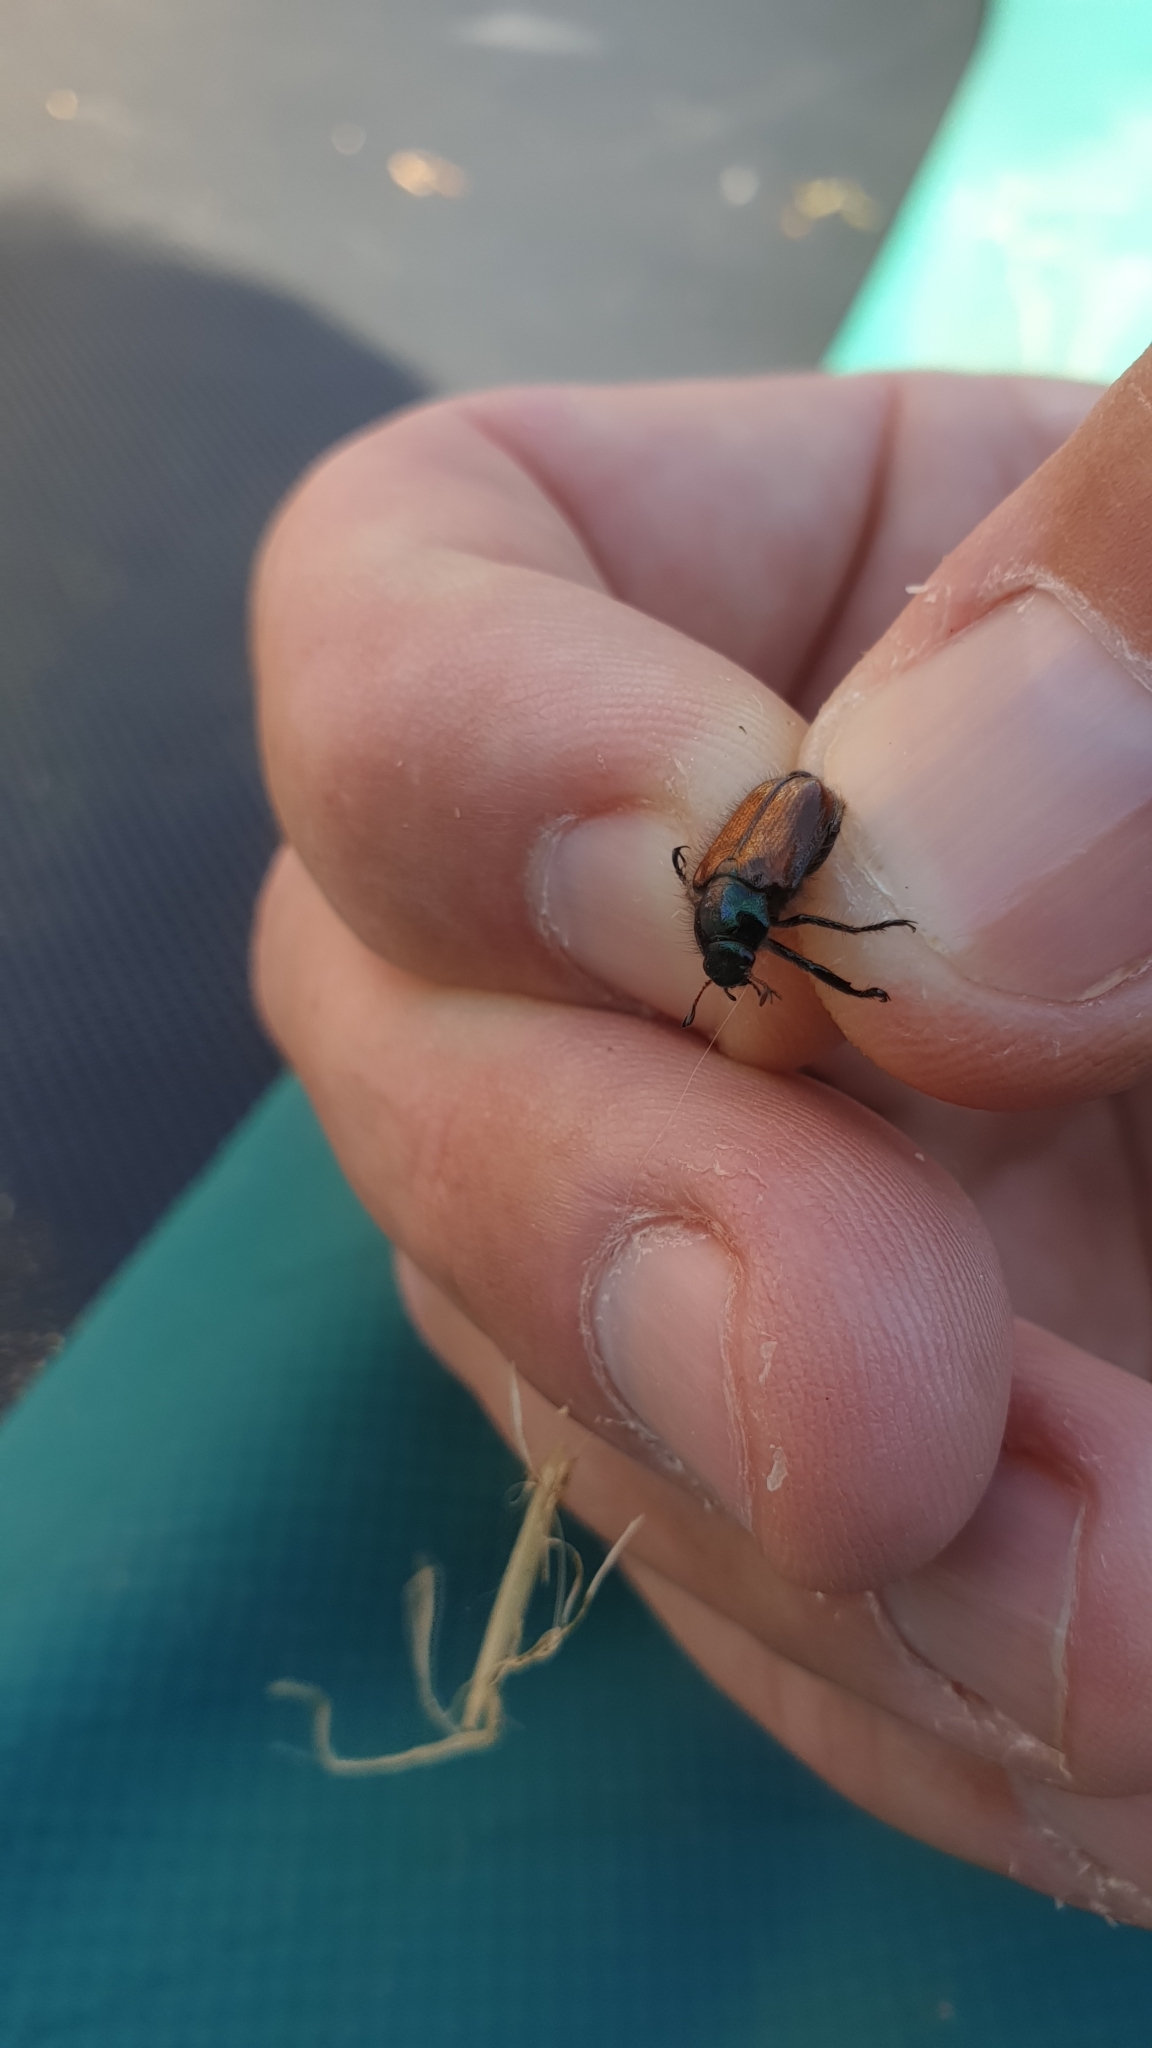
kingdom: Animalia
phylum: Arthropoda
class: Insecta
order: Coleoptera
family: Scarabaeidae
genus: Phyllopertha
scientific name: Phyllopertha horticola
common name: Garden chafer
